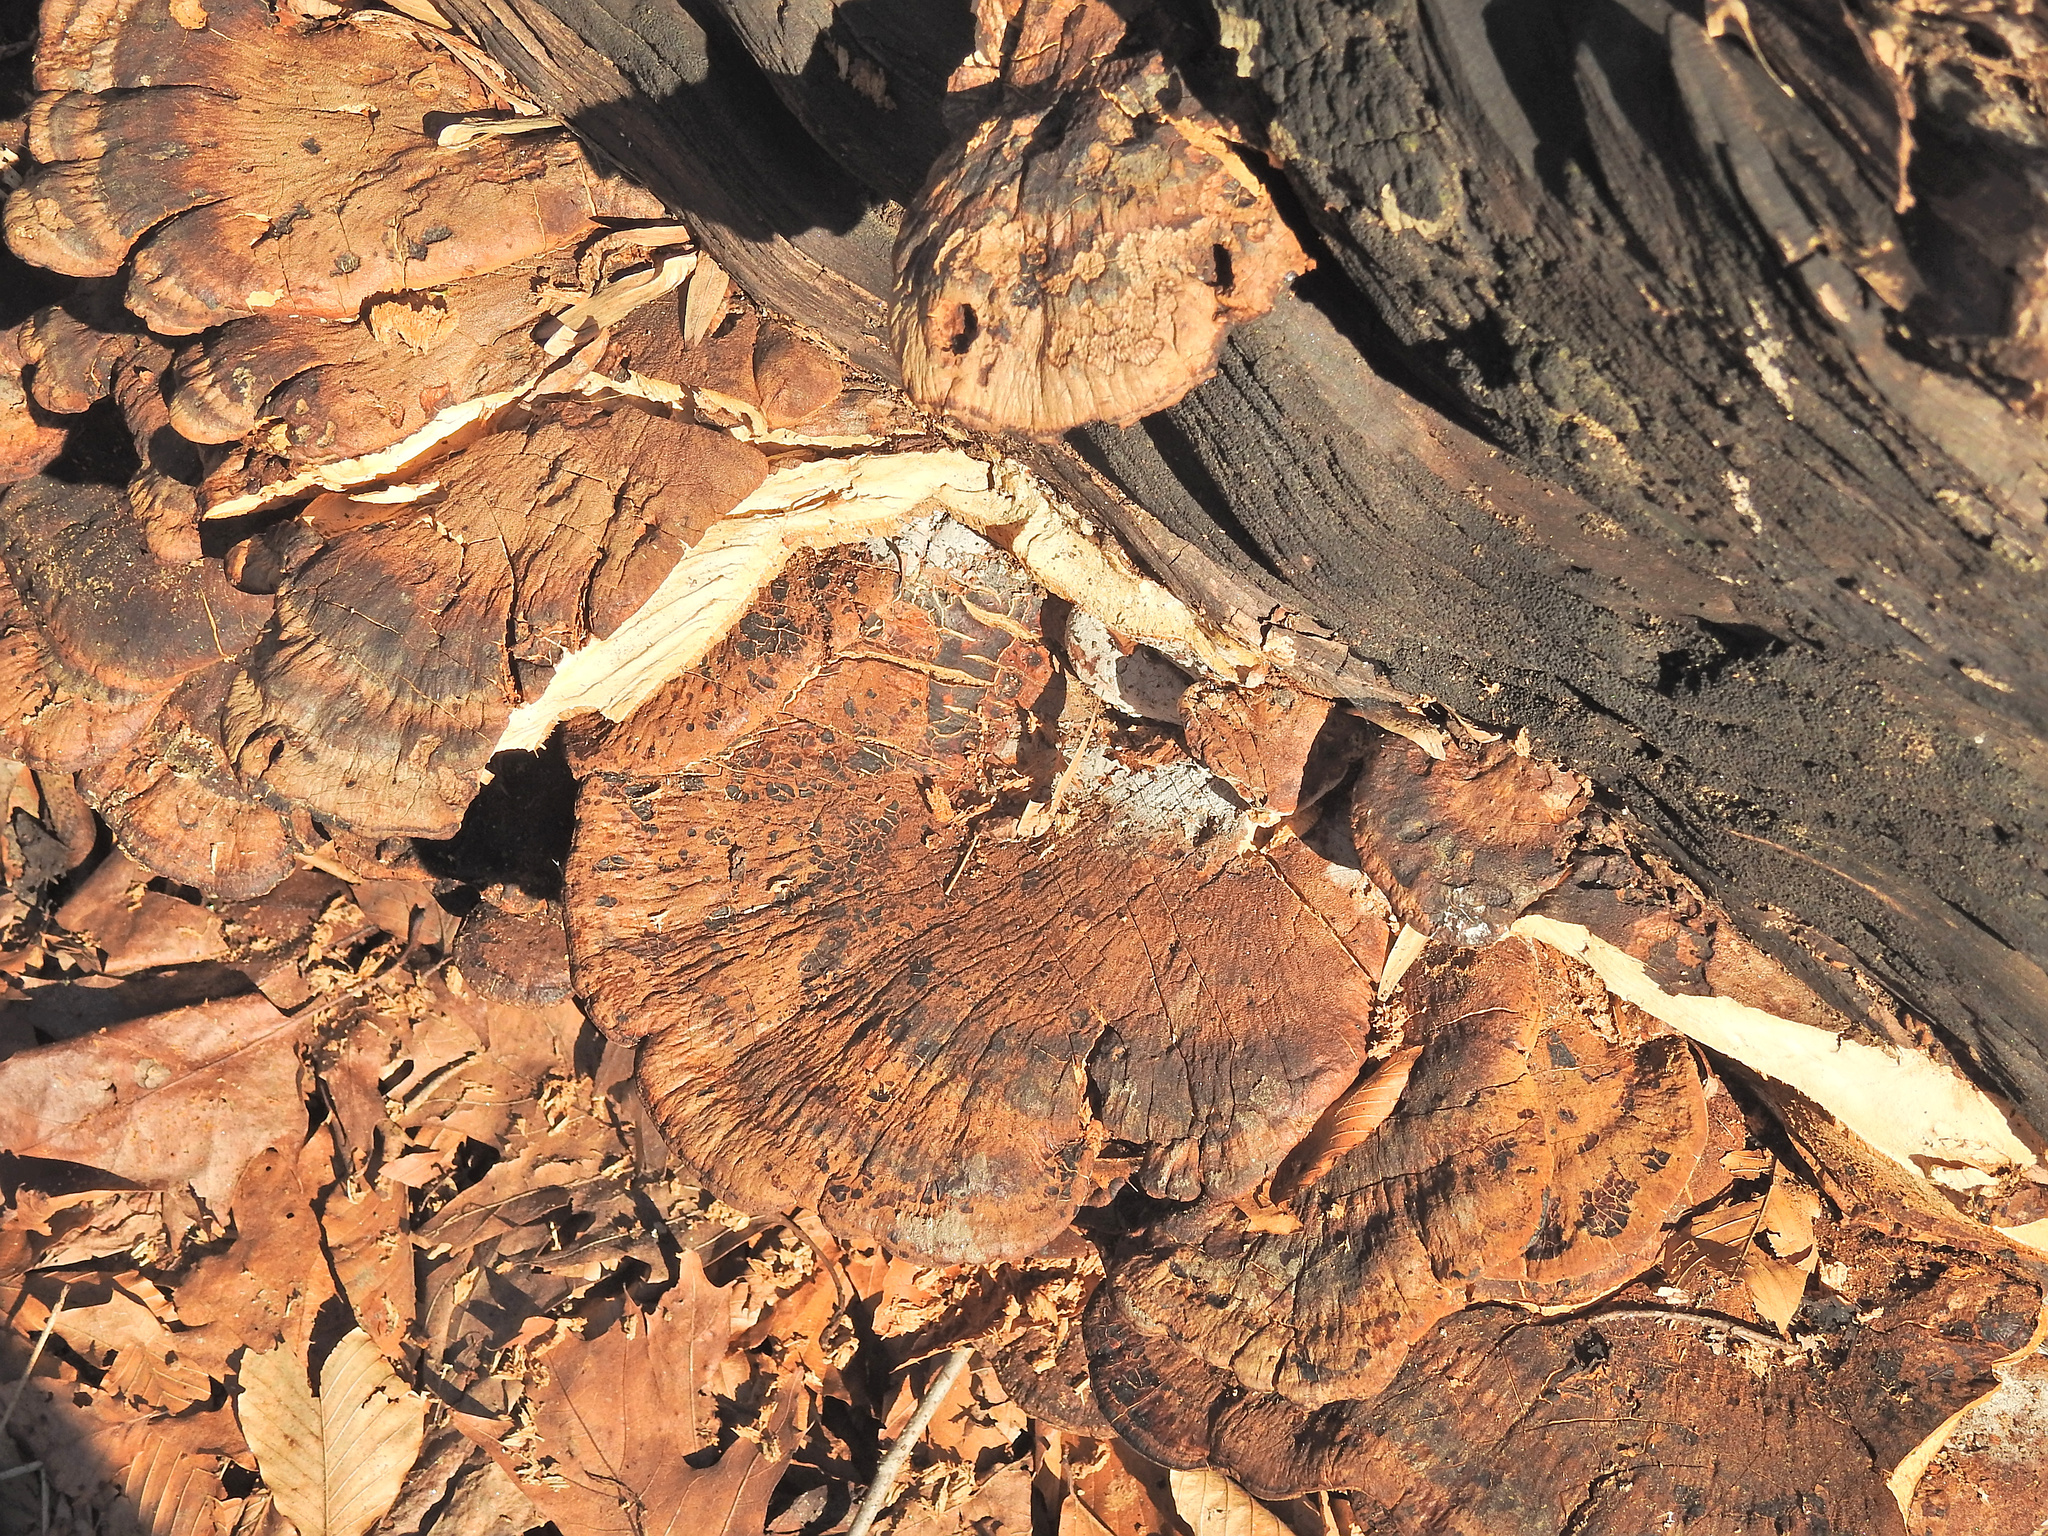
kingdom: Fungi
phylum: Basidiomycota
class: Agaricomycetes
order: Polyporales
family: Ischnodermataceae
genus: Ischnoderma
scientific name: Ischnoderma resinosum
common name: Resinous polypore
